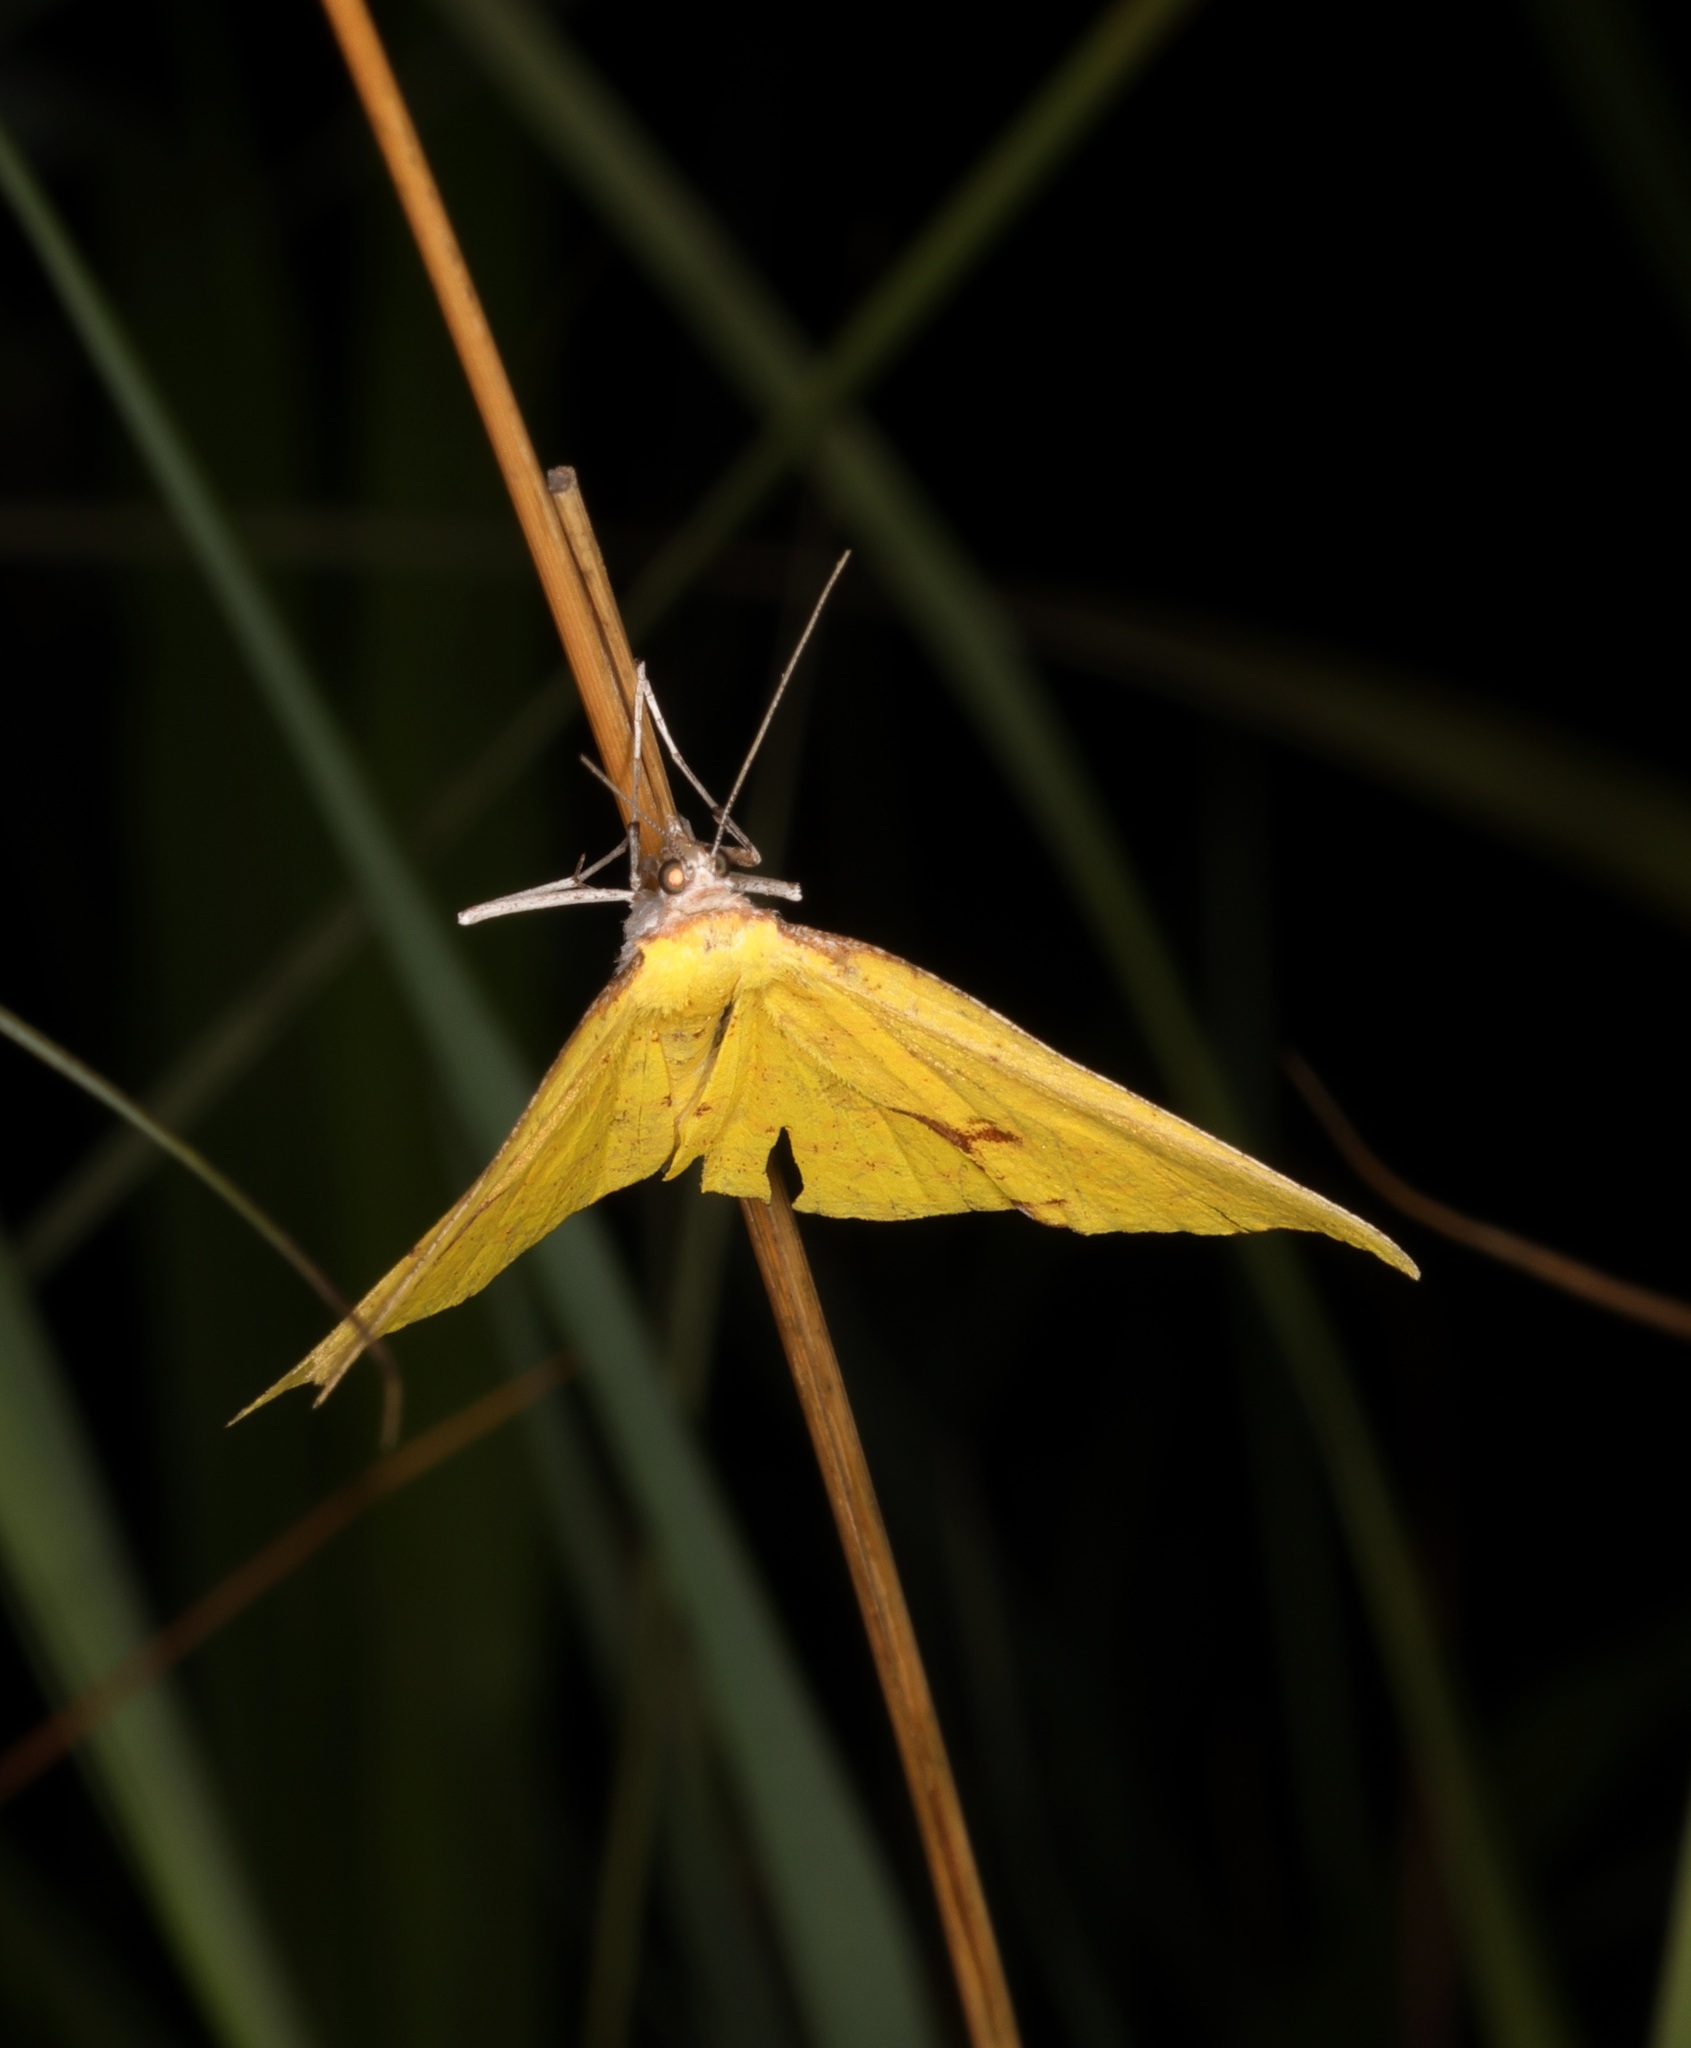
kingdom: Animalia
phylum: Arthropoda
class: Insecta
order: Lepidoptera
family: Geometridae
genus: Corymica
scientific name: Corymica spatiosa
